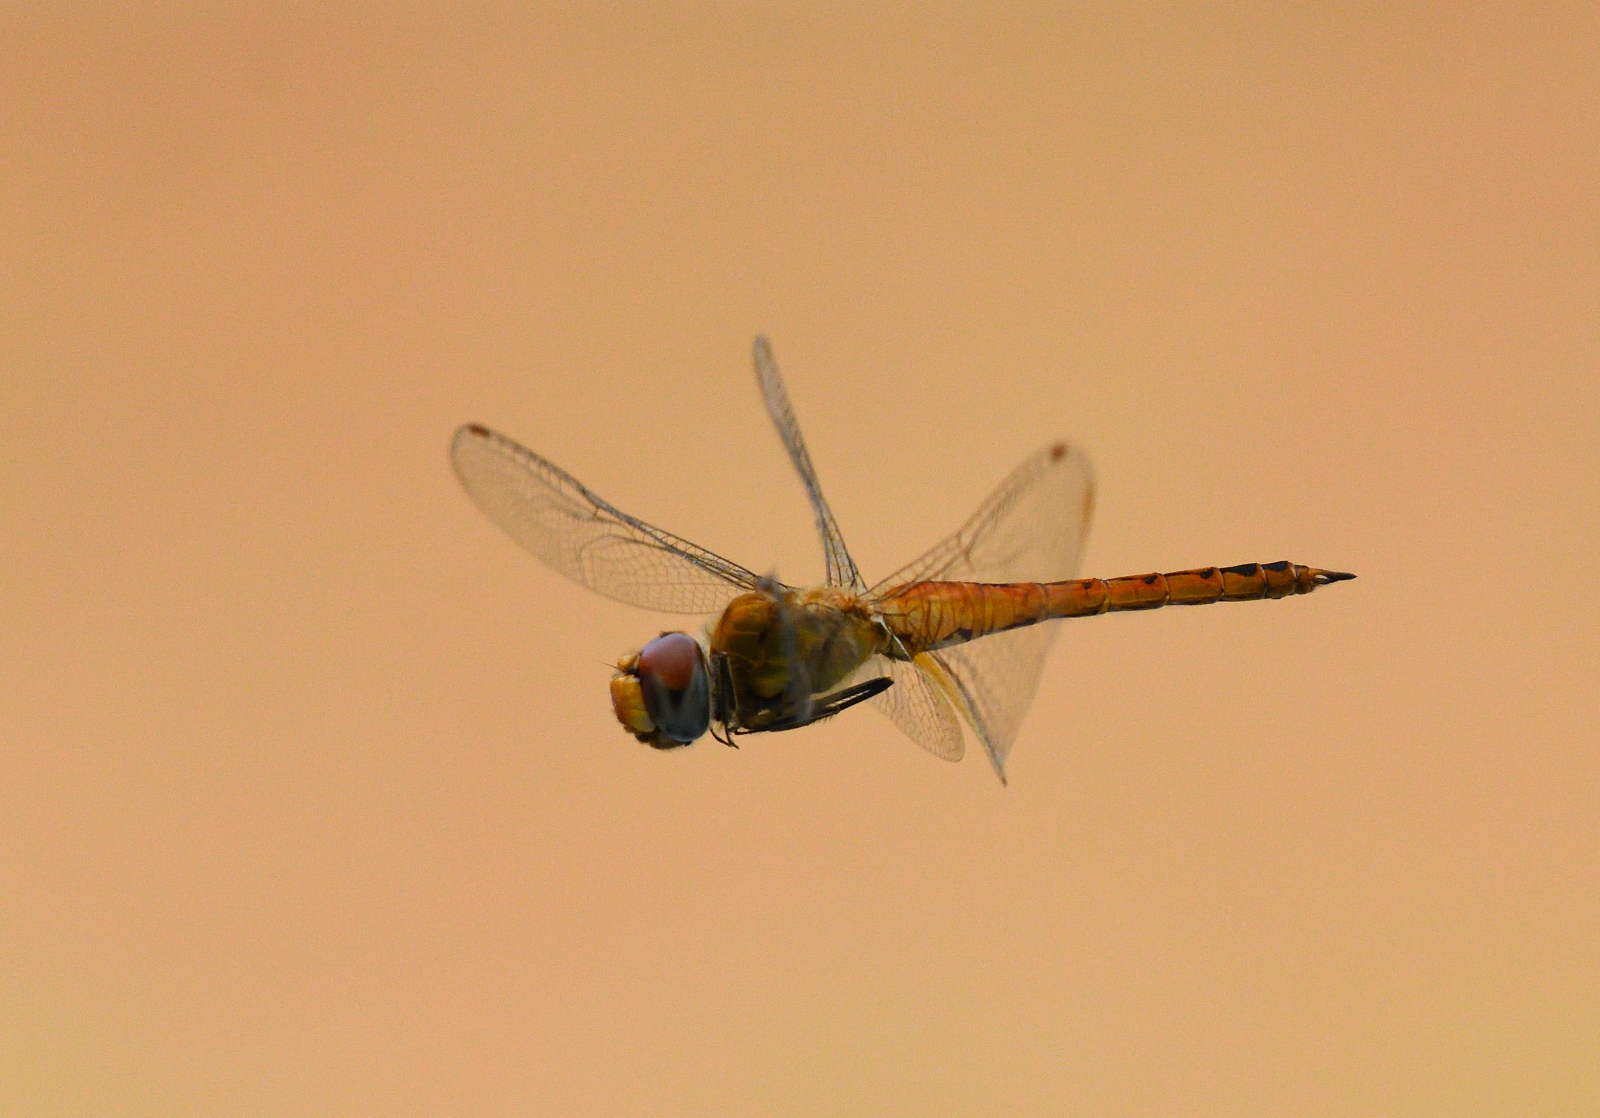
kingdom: Animalia
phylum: Arthropoda
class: Insecta
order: Odonata
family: Libellulidae
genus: Pantala
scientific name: Pantala flavescens
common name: Wandering glider
